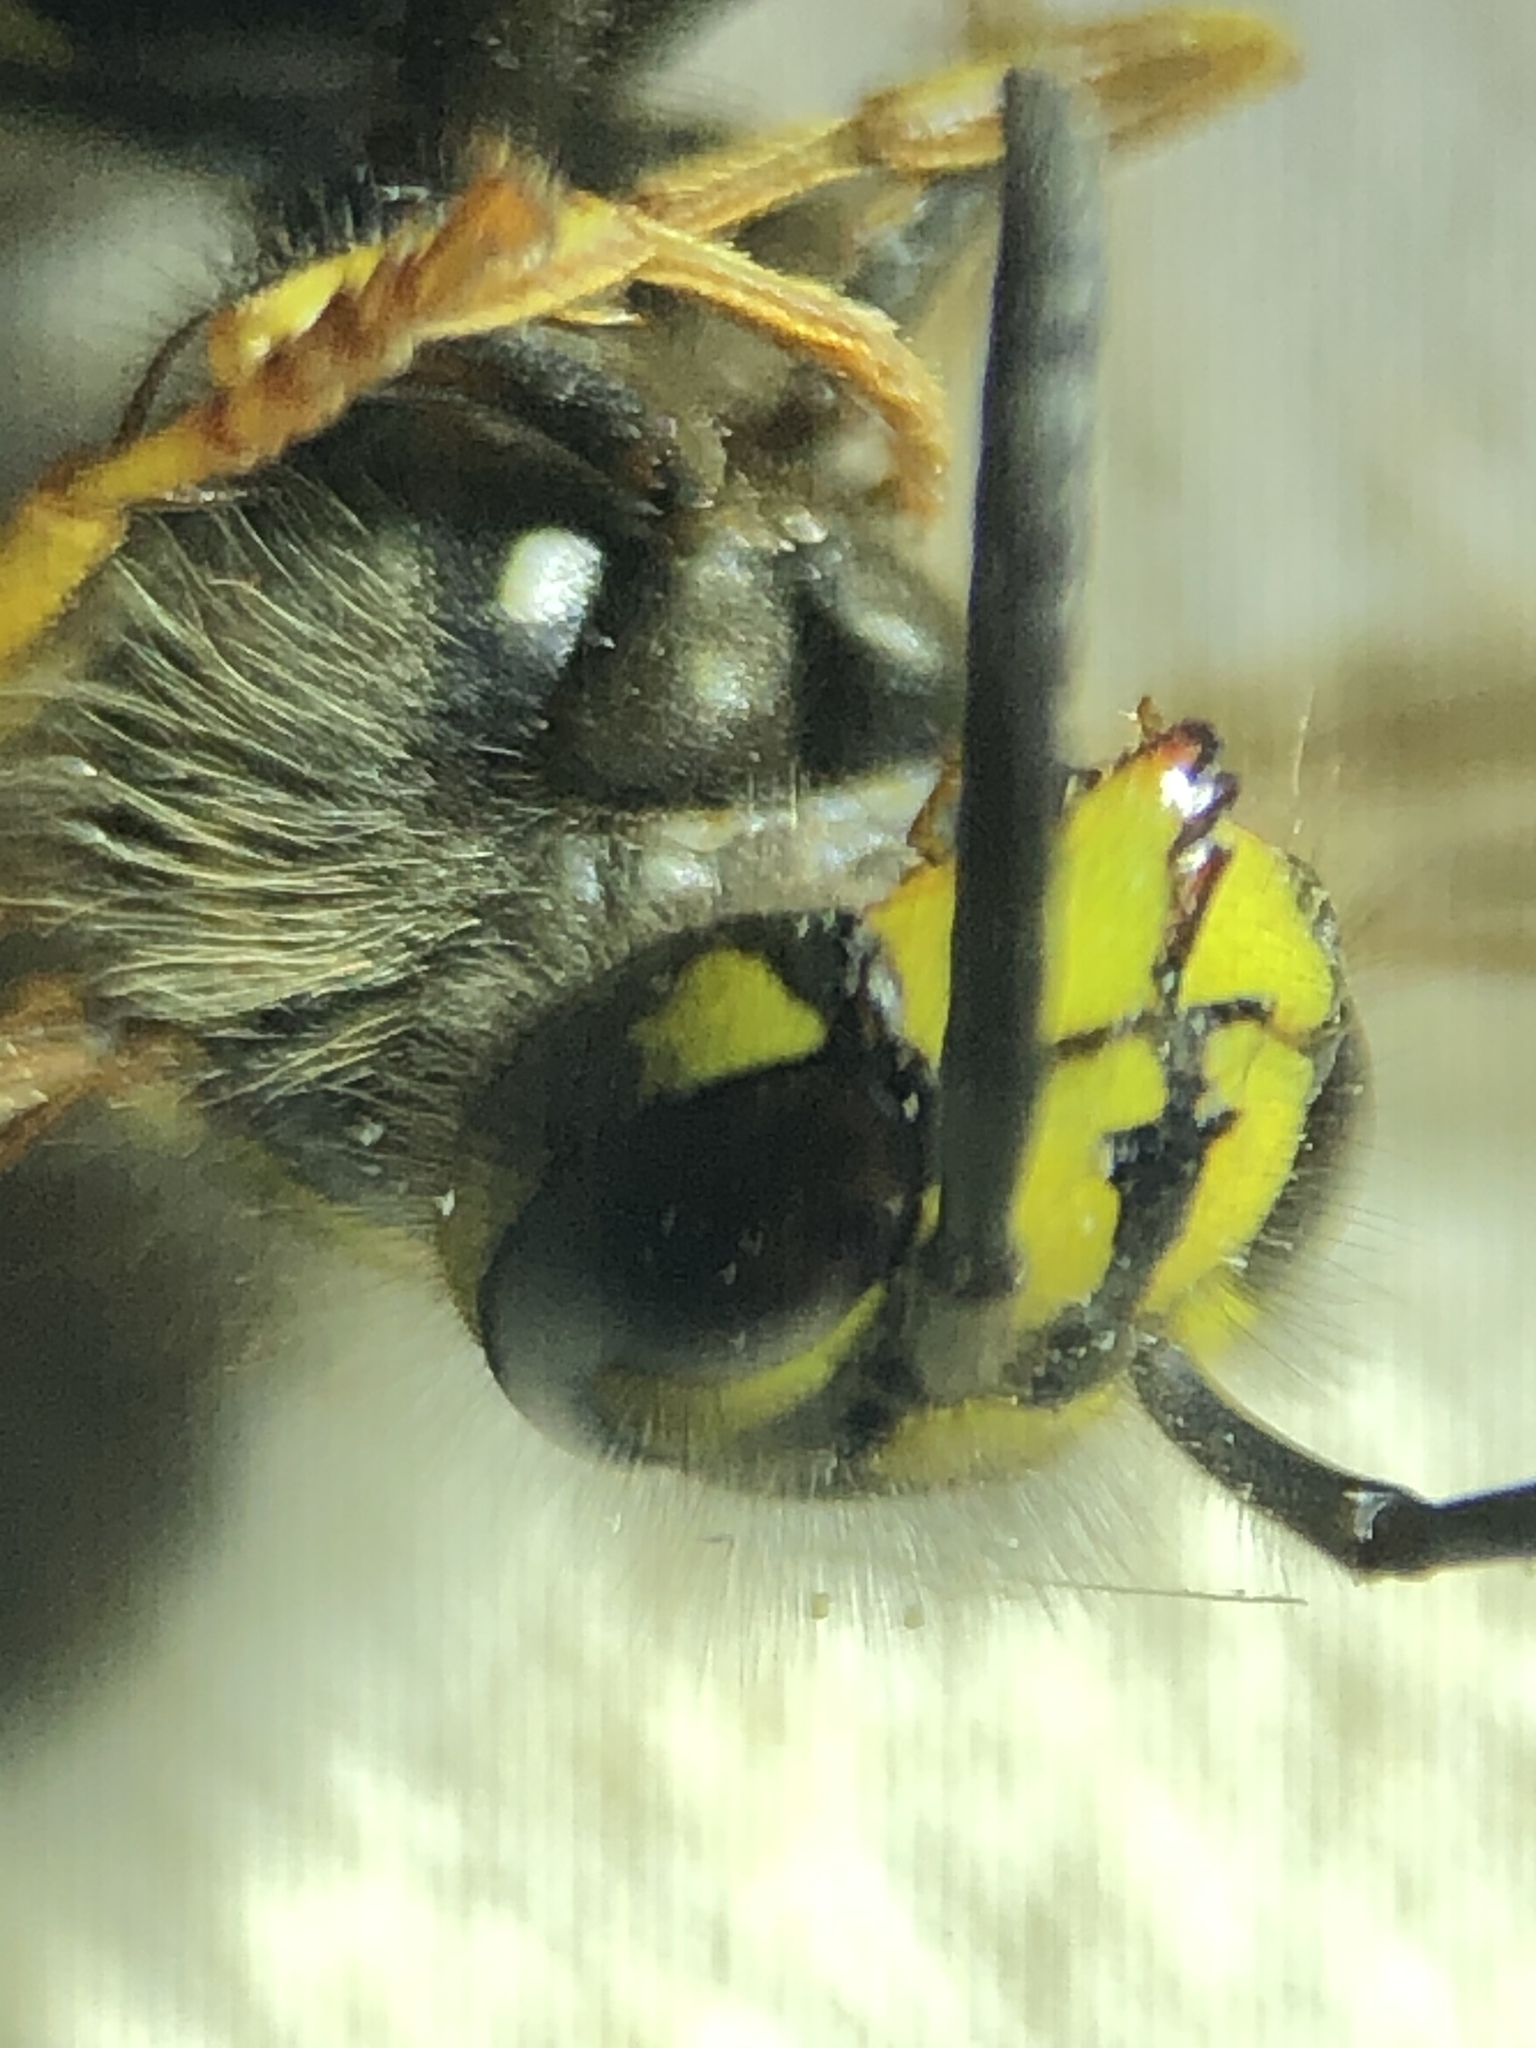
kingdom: Animalia
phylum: Arthropoda
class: Insecta
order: Hymenoptera
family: Vespidae
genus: Vespula
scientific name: Vespula vulgaris
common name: Common wasp
